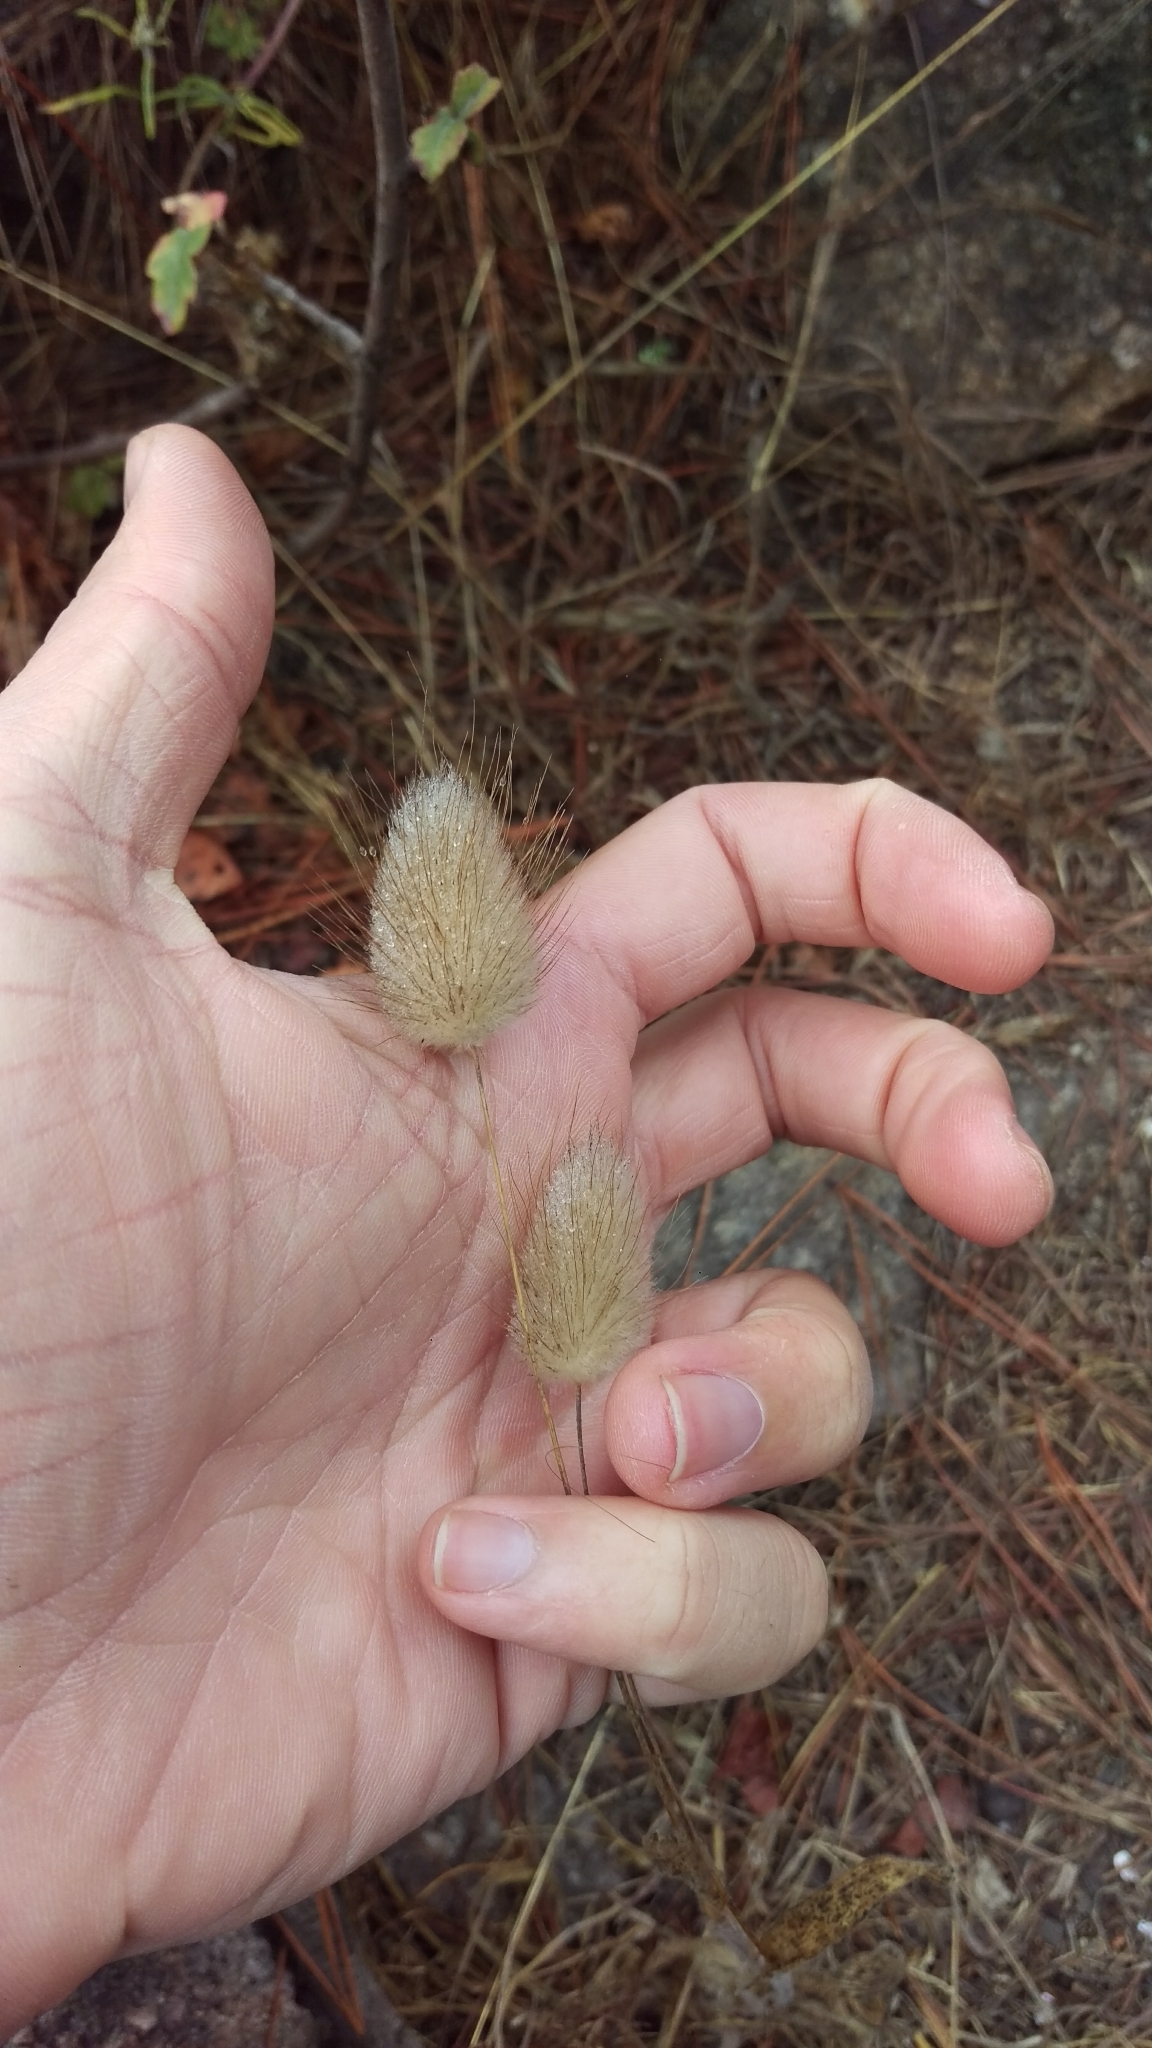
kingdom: Plantae
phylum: Tracheophyta
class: Liliopsida
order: Poales
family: Poaceae
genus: Lagurus
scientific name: Lagurus ovatus
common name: Hare's-tail
